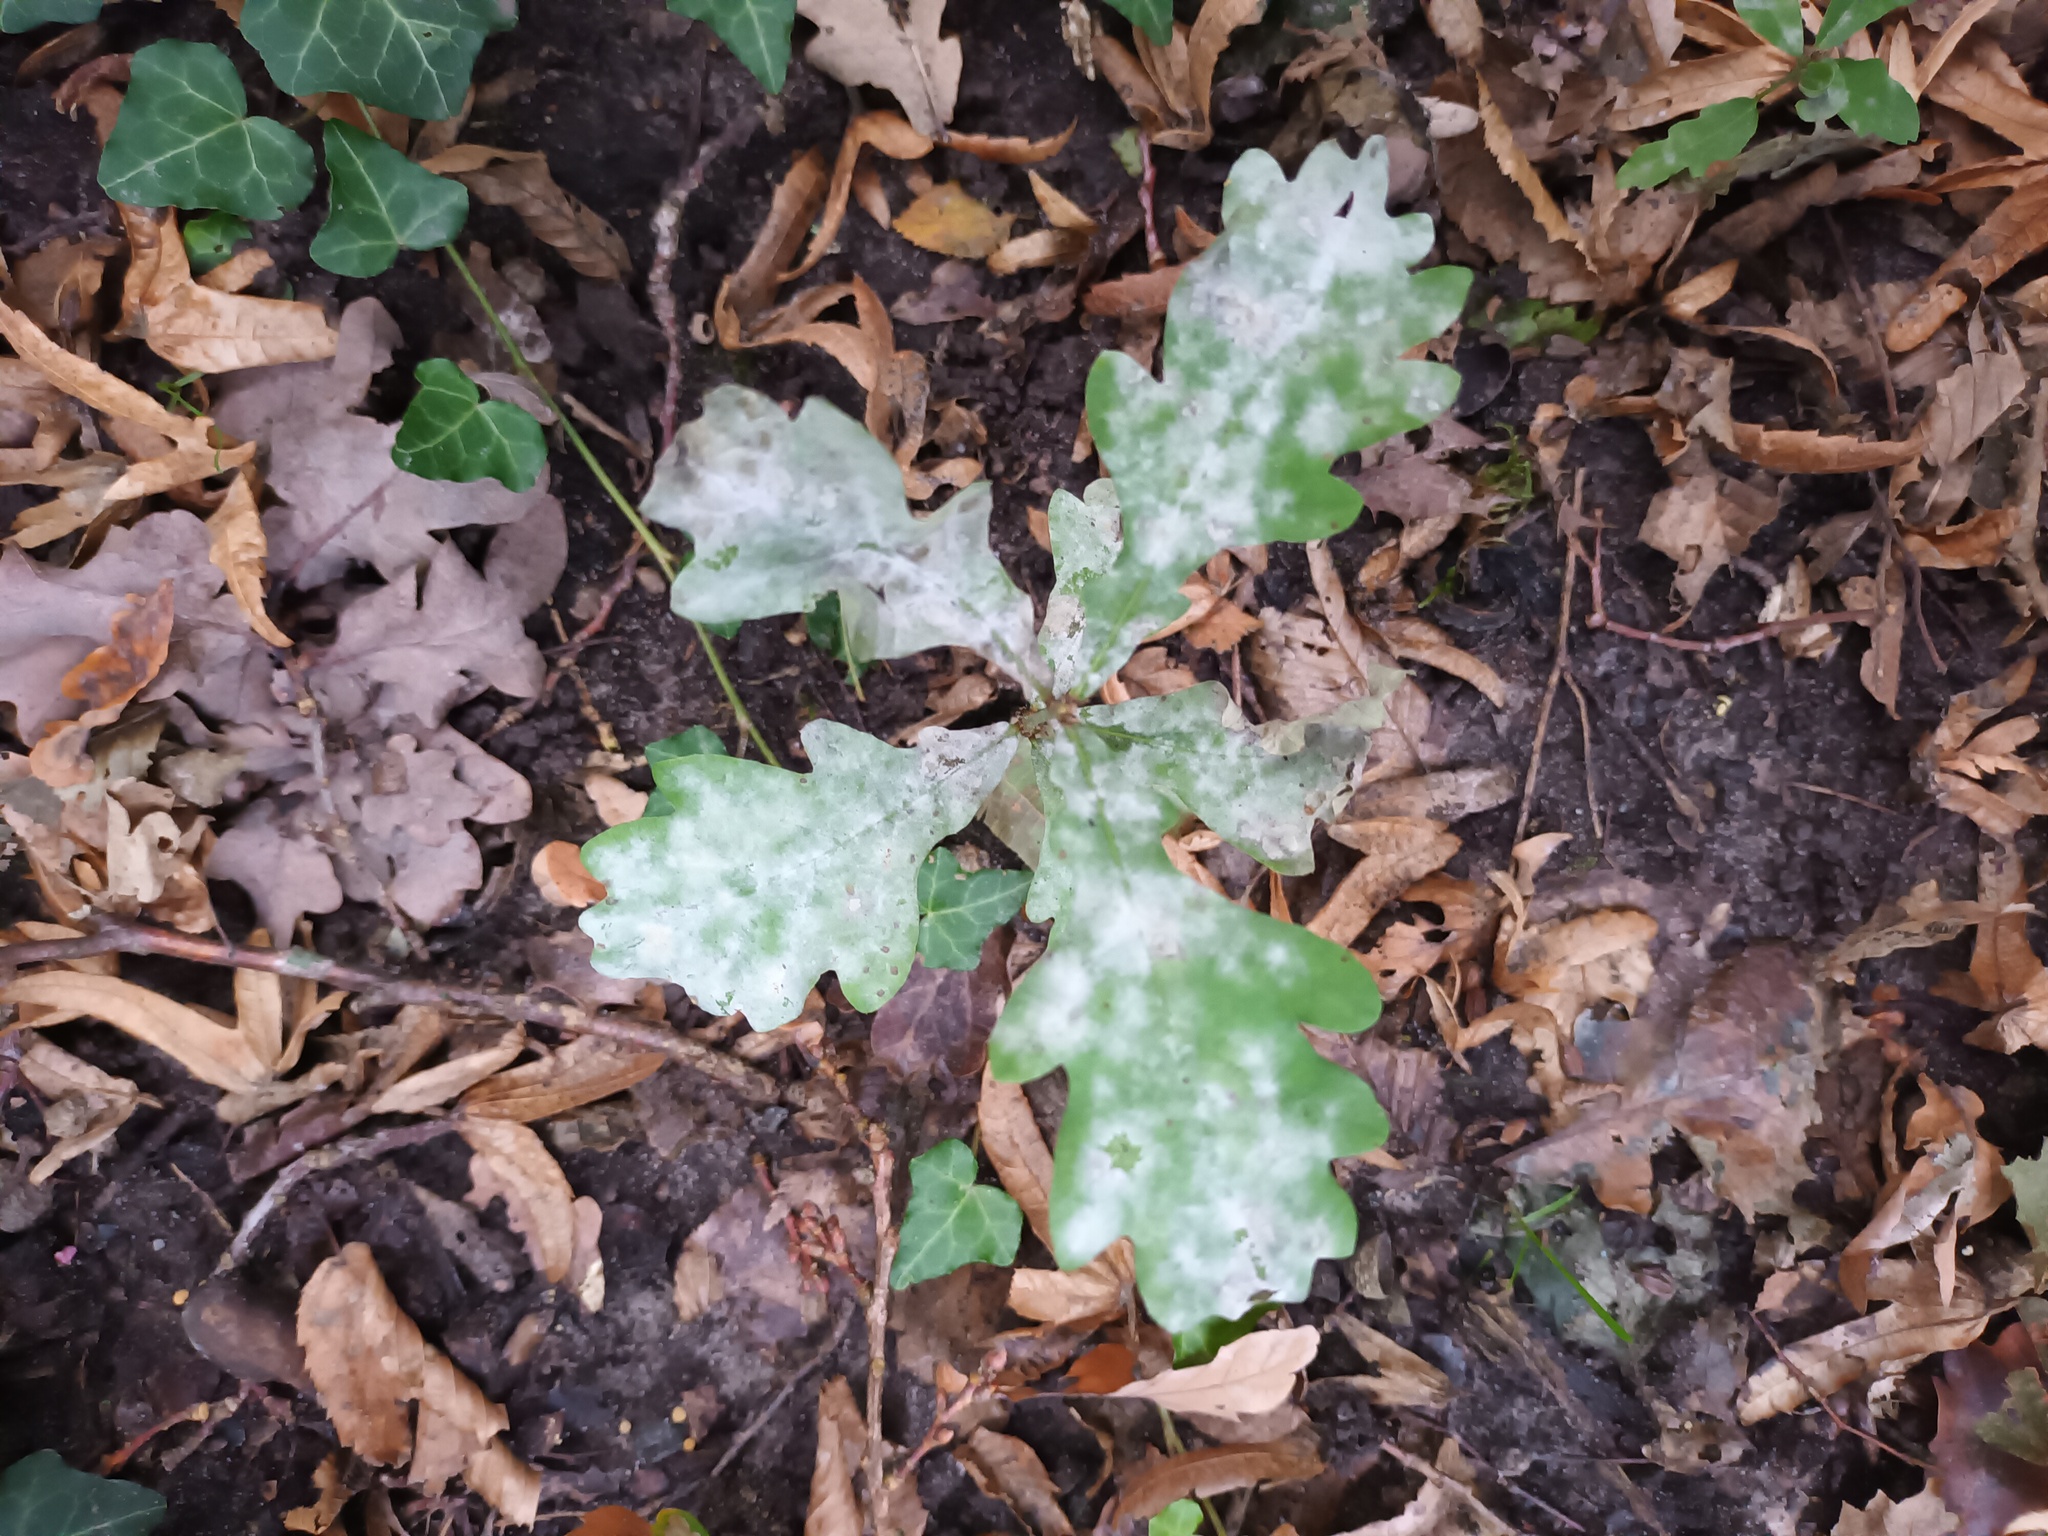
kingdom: Fungi
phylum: Ascomycota
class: Leotiomycetes
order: Helotiales
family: Erysiphaceae
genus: Erysiphe
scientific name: Erysiphe
